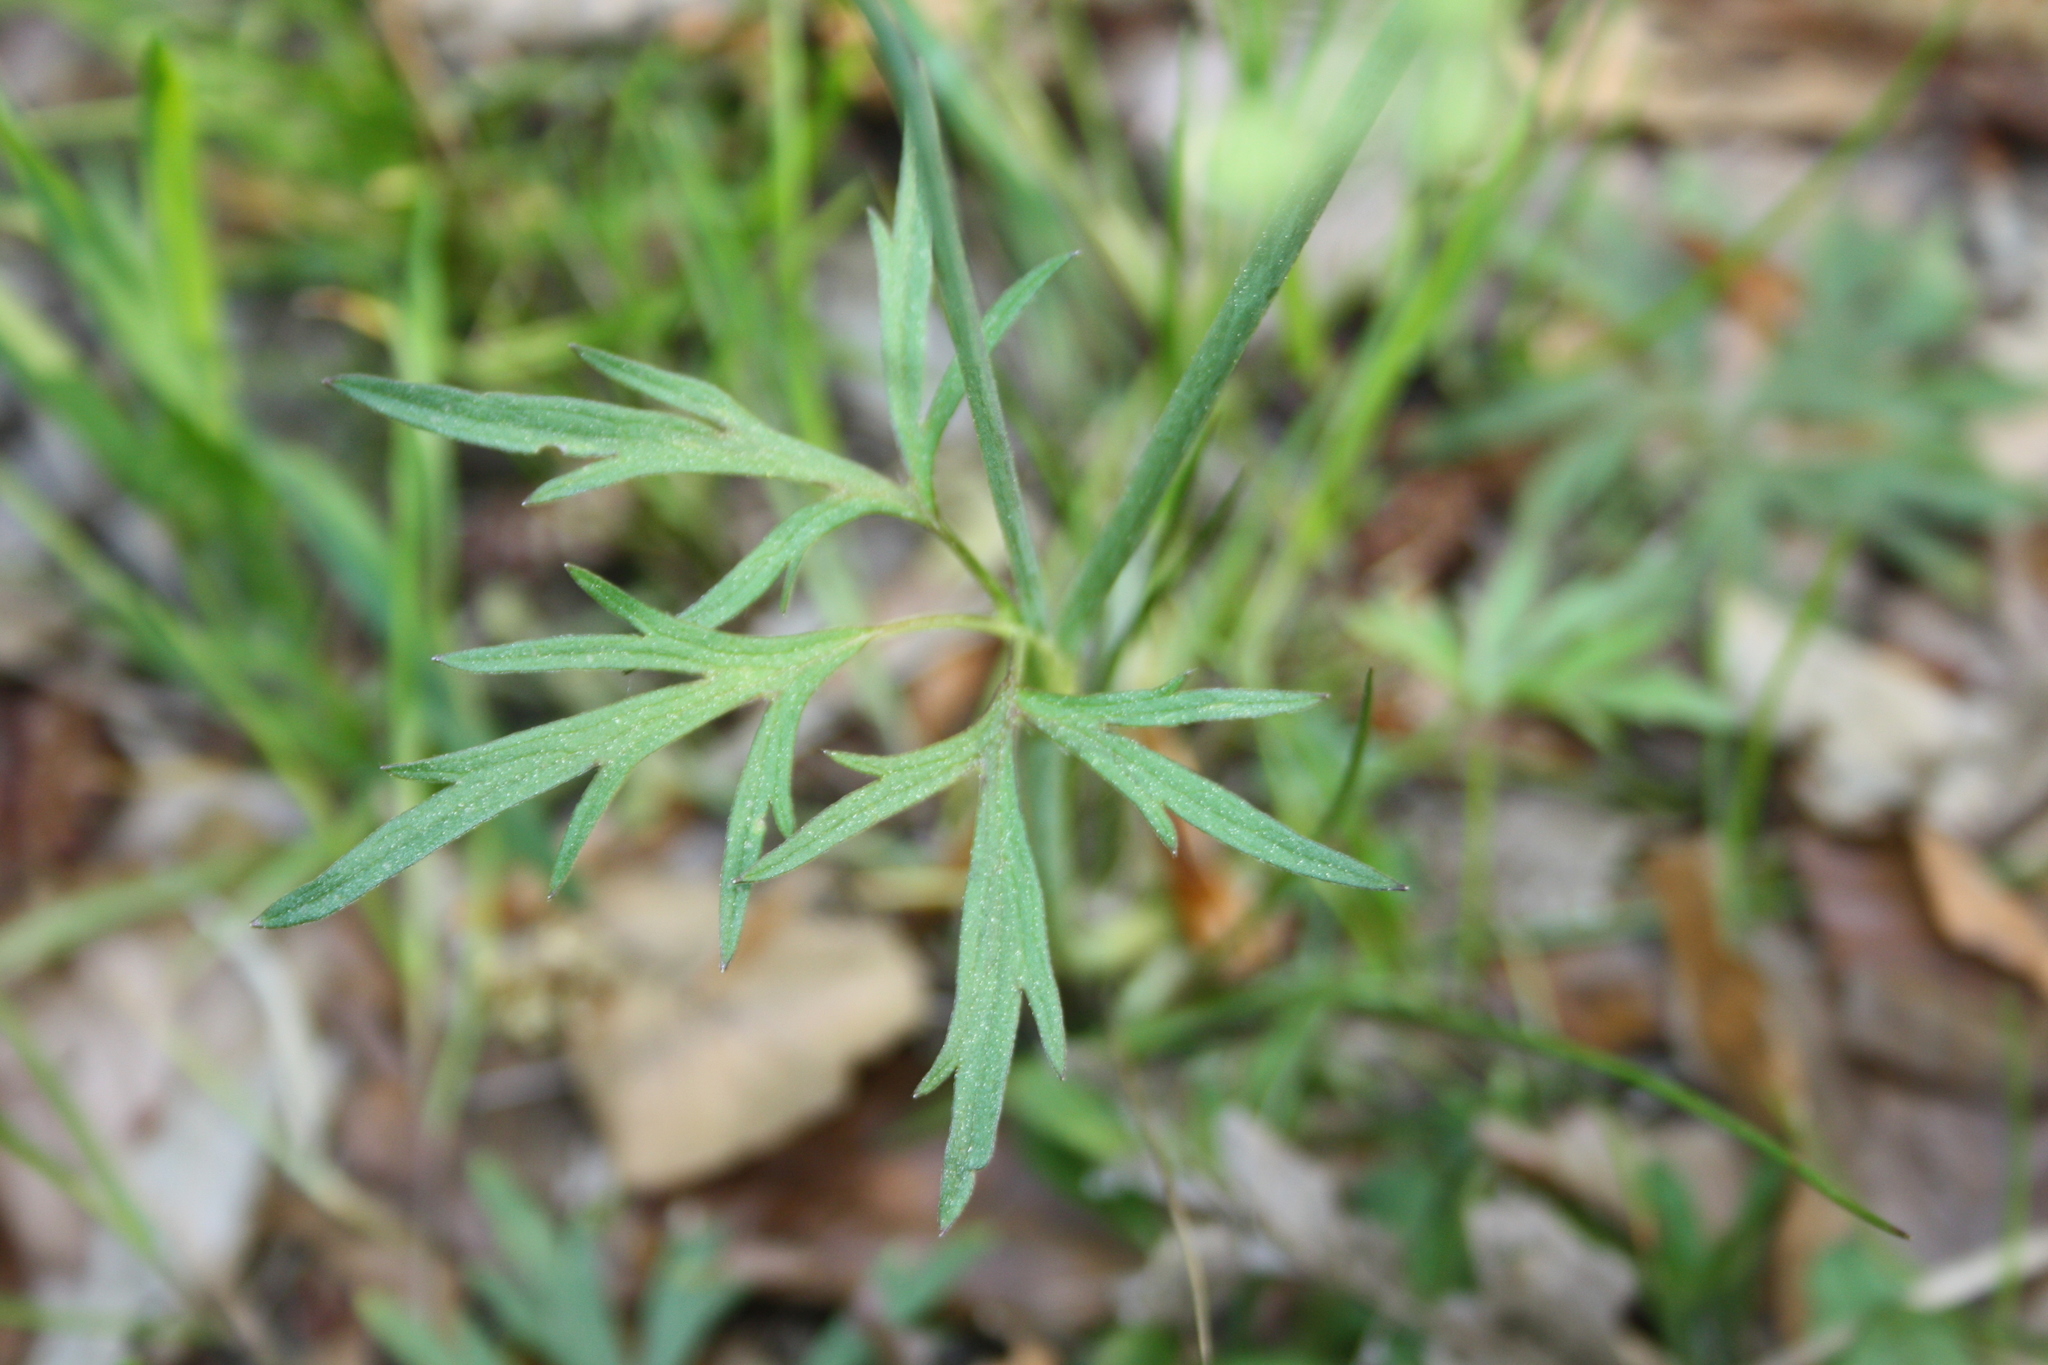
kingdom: Plantae
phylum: Tracheophyta
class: Magnoliopsida
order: Ranunculales
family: Ranunculaceae
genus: Ranunculus
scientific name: Ranunculus acris
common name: Meadow buttercup
